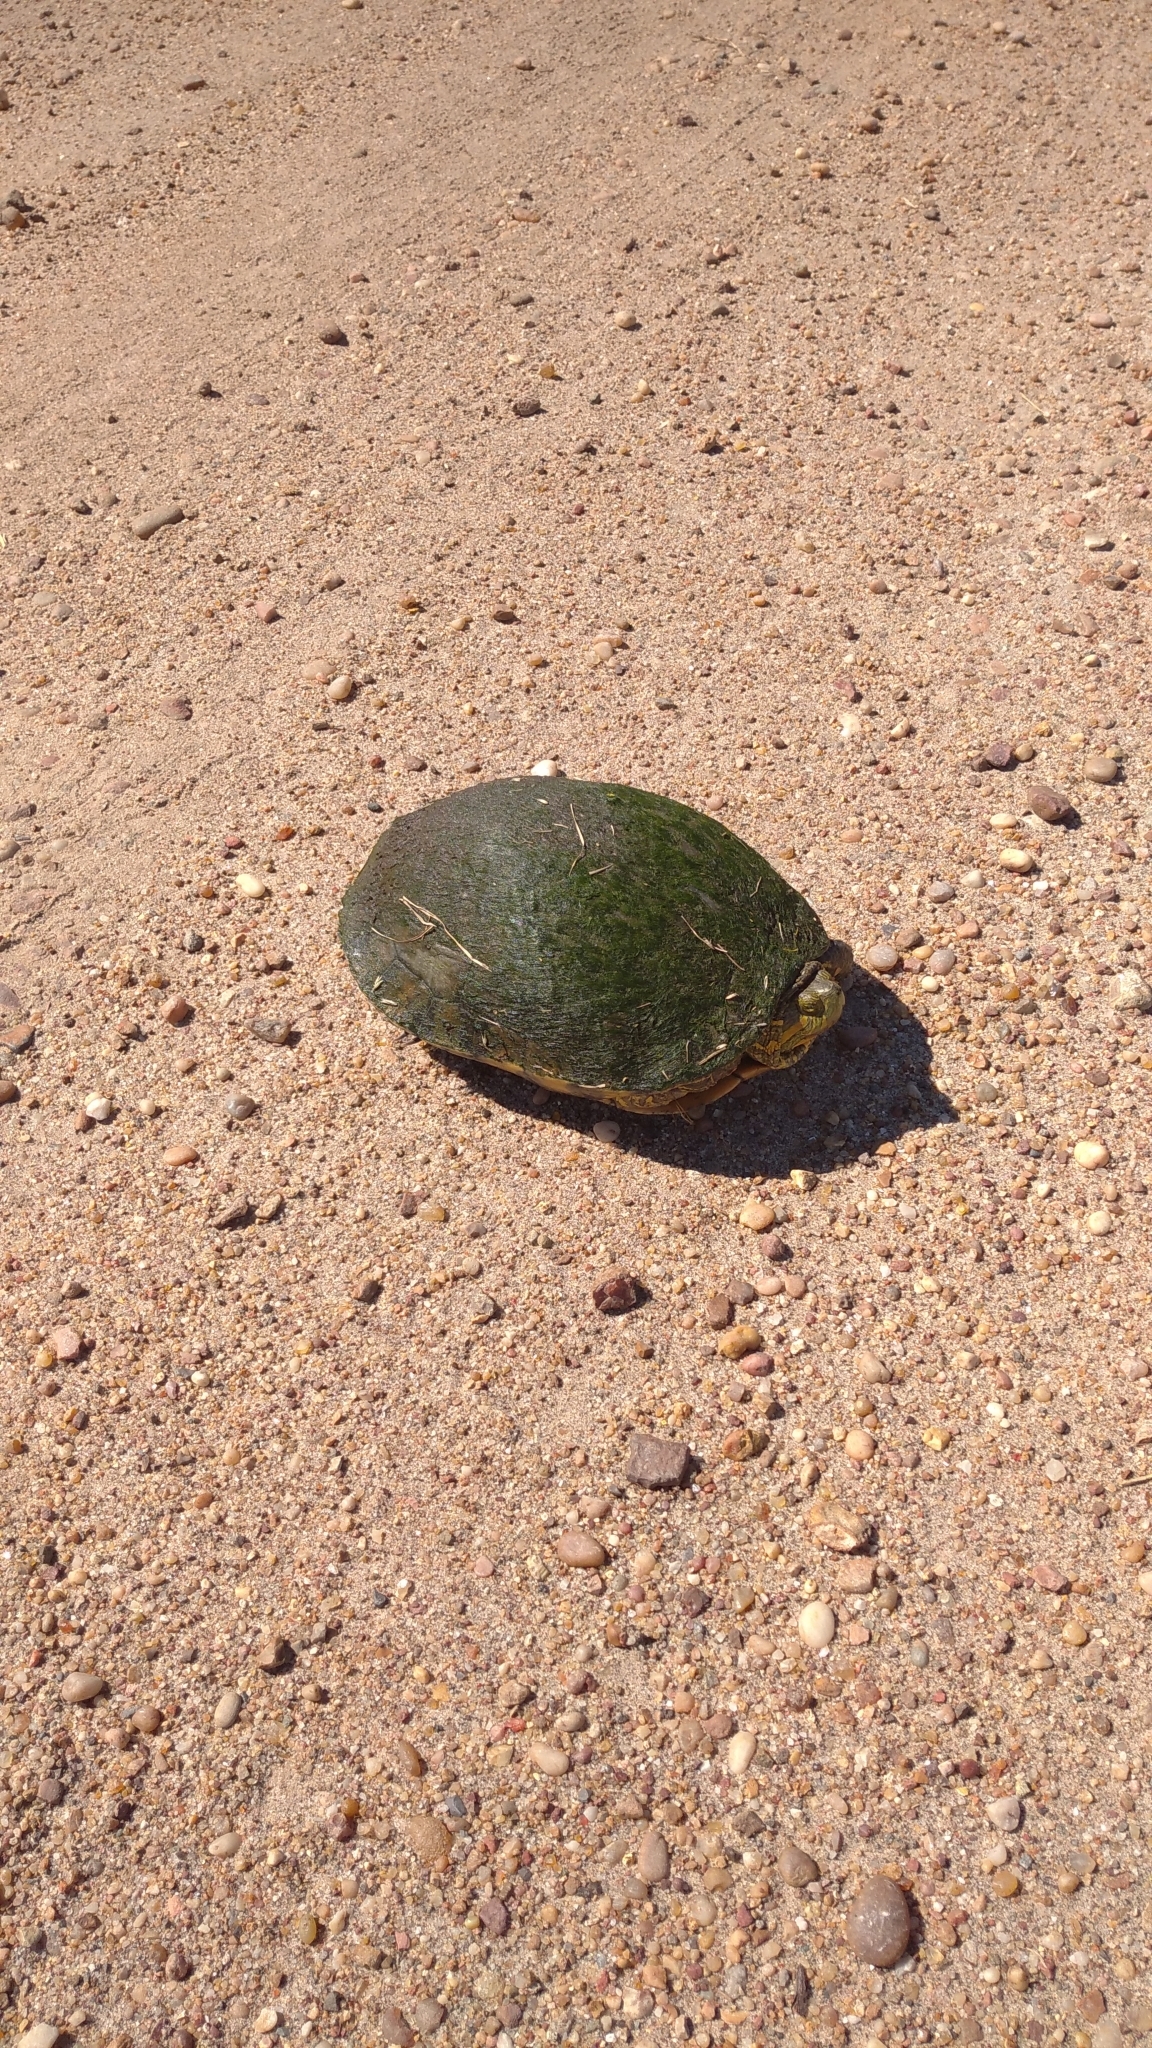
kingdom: Animalia
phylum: Chordata
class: Testudines
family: Emydidae
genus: Trachemys
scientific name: Trachemys dorbigni
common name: Black-bellied slider
